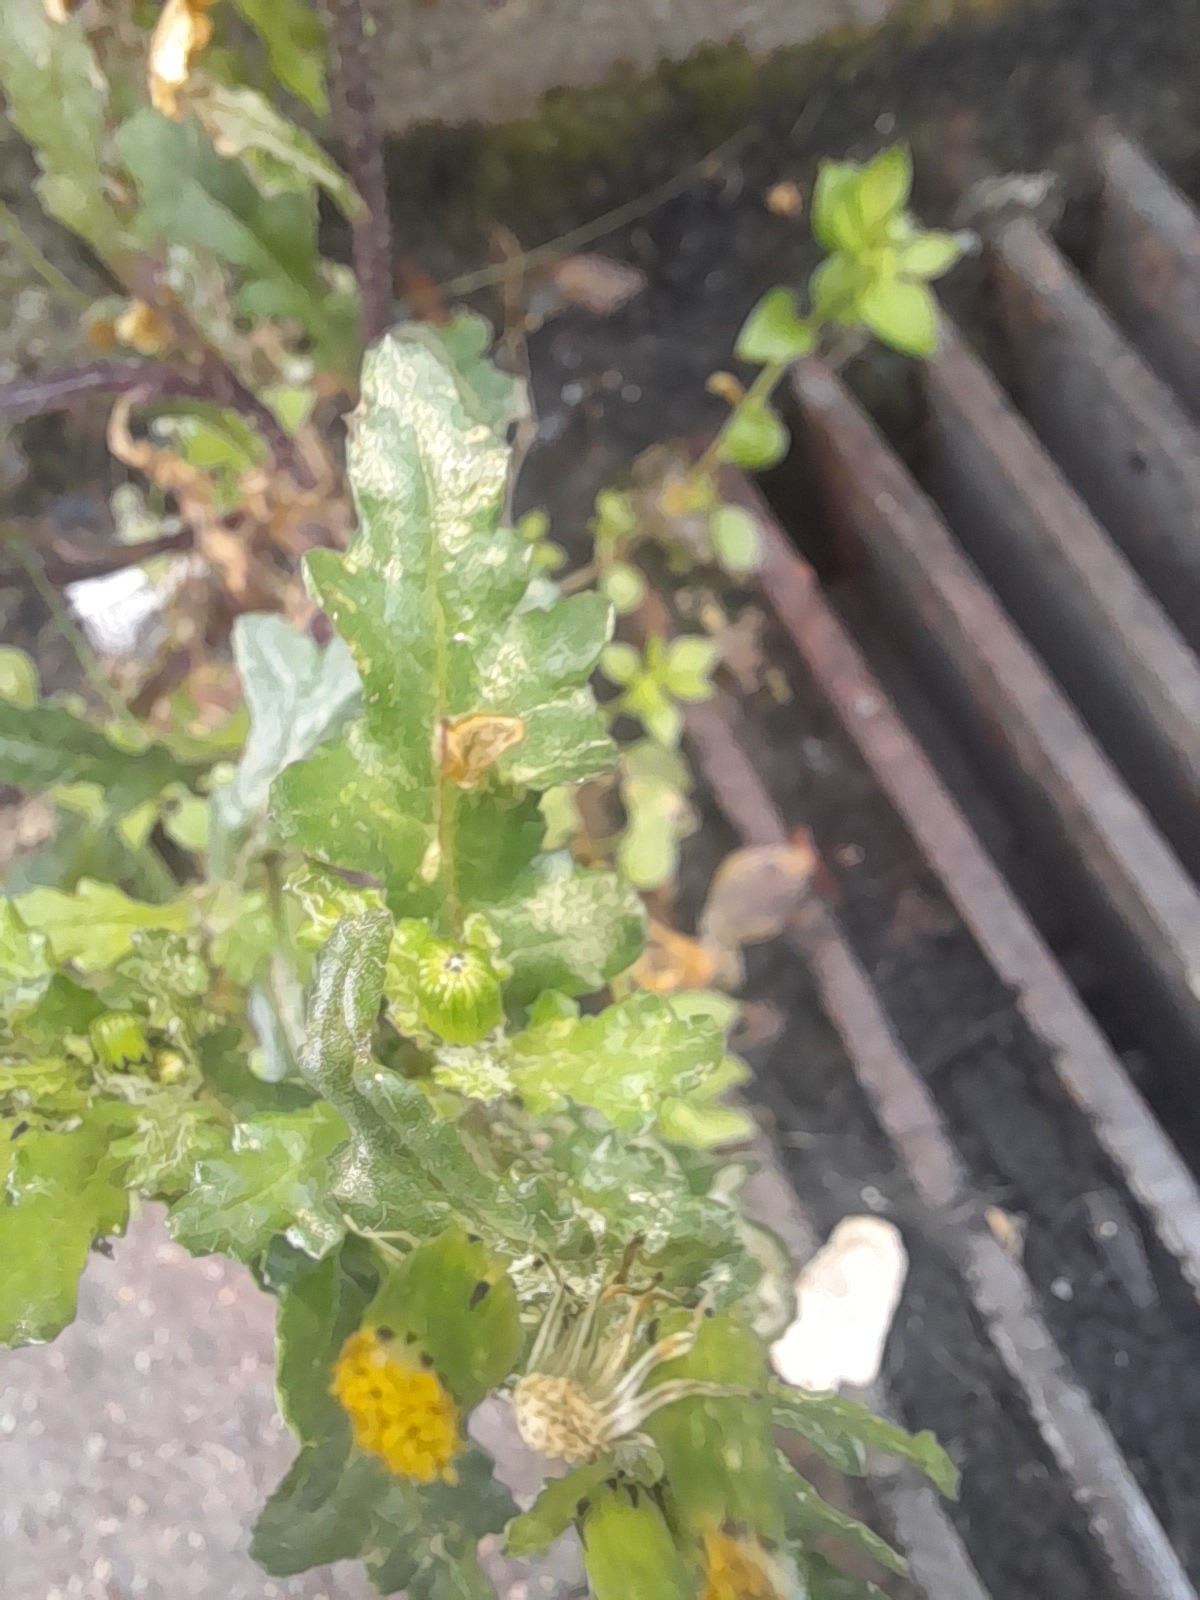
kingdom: Plantae
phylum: Tracheophyta
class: Magnoliopsida
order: Asterales
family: Asteraceae
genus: Senecio
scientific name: Senecio vulgaris
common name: Old-man-in-the-spring
